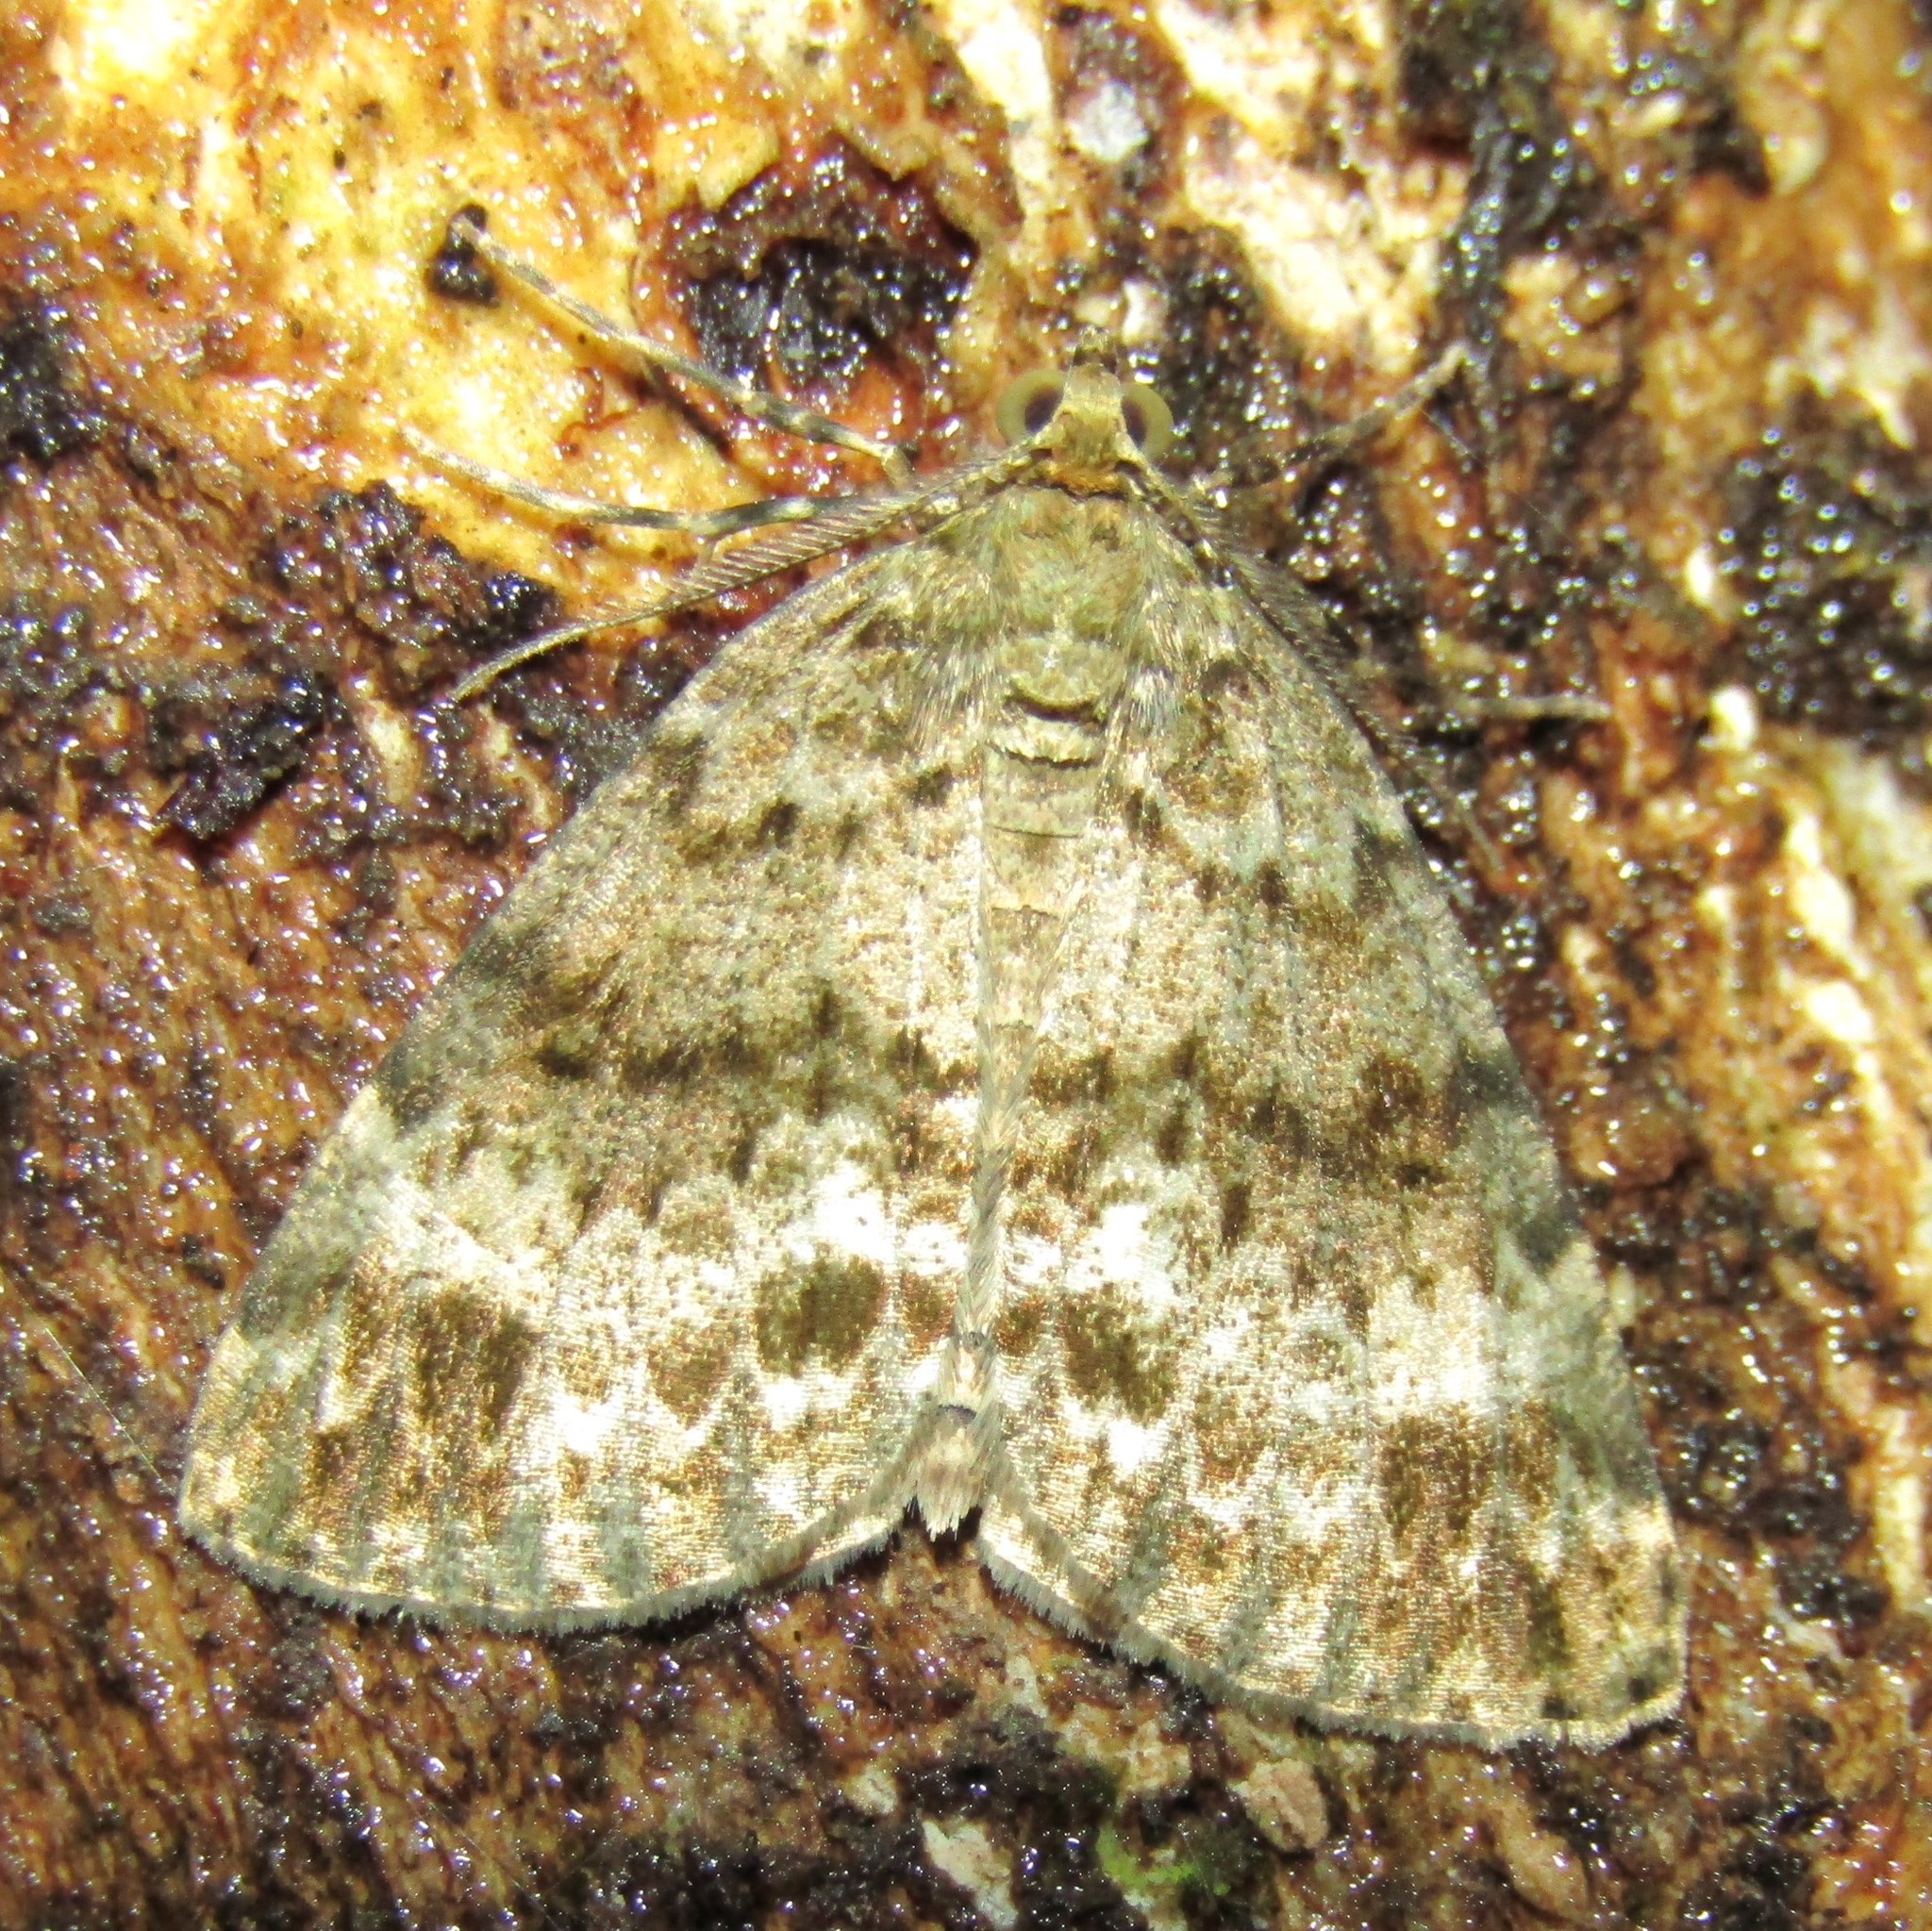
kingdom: Animalia
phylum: Arthropoda
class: Insecta
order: Lepidoptera
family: Geometridae
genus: Pseudocoremia
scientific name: Pseudocoremia indistincta
